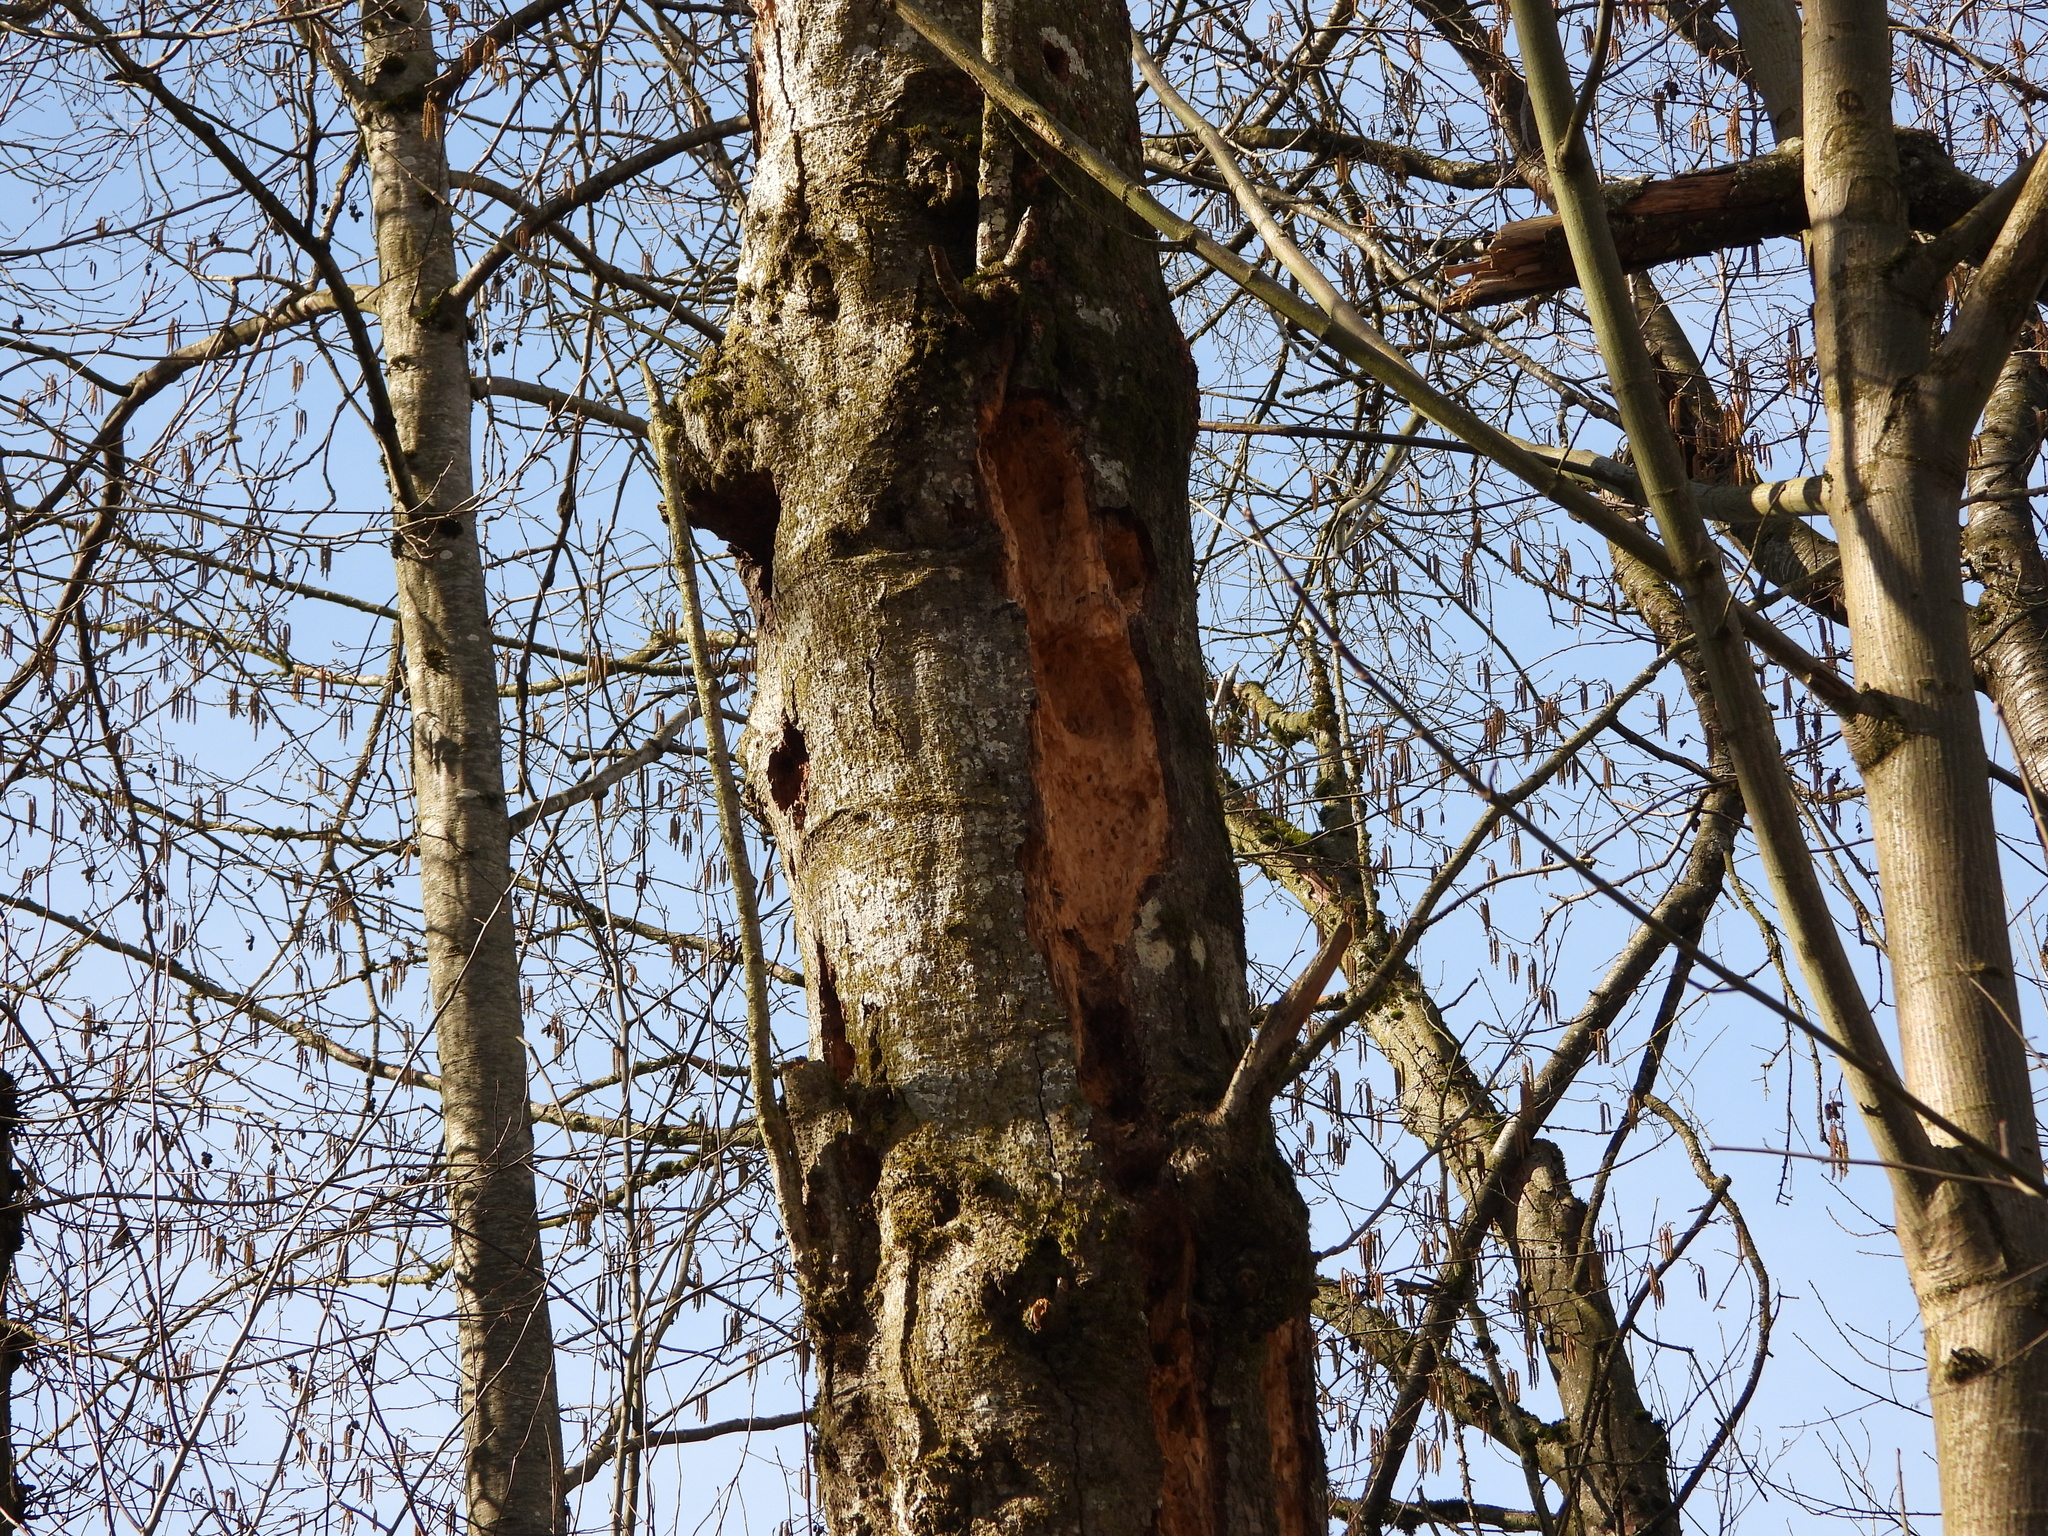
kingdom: Animalia
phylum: Chordata
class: Aves
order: Piciformes
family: Picidae
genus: Dryocopus
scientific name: Dryocopus pileatus
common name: Pileated woodpecker
